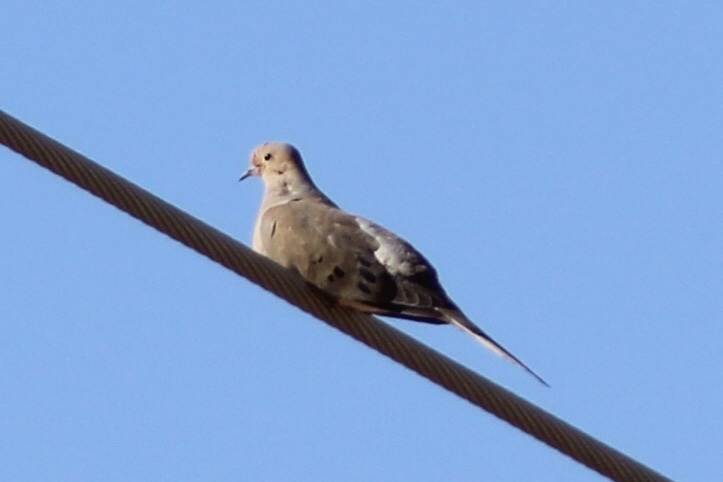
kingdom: Animalia
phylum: Chordata
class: Aves
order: Columbiformes
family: Columbidae
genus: Zenaida
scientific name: Zenaida macroura
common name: Mourning dove
